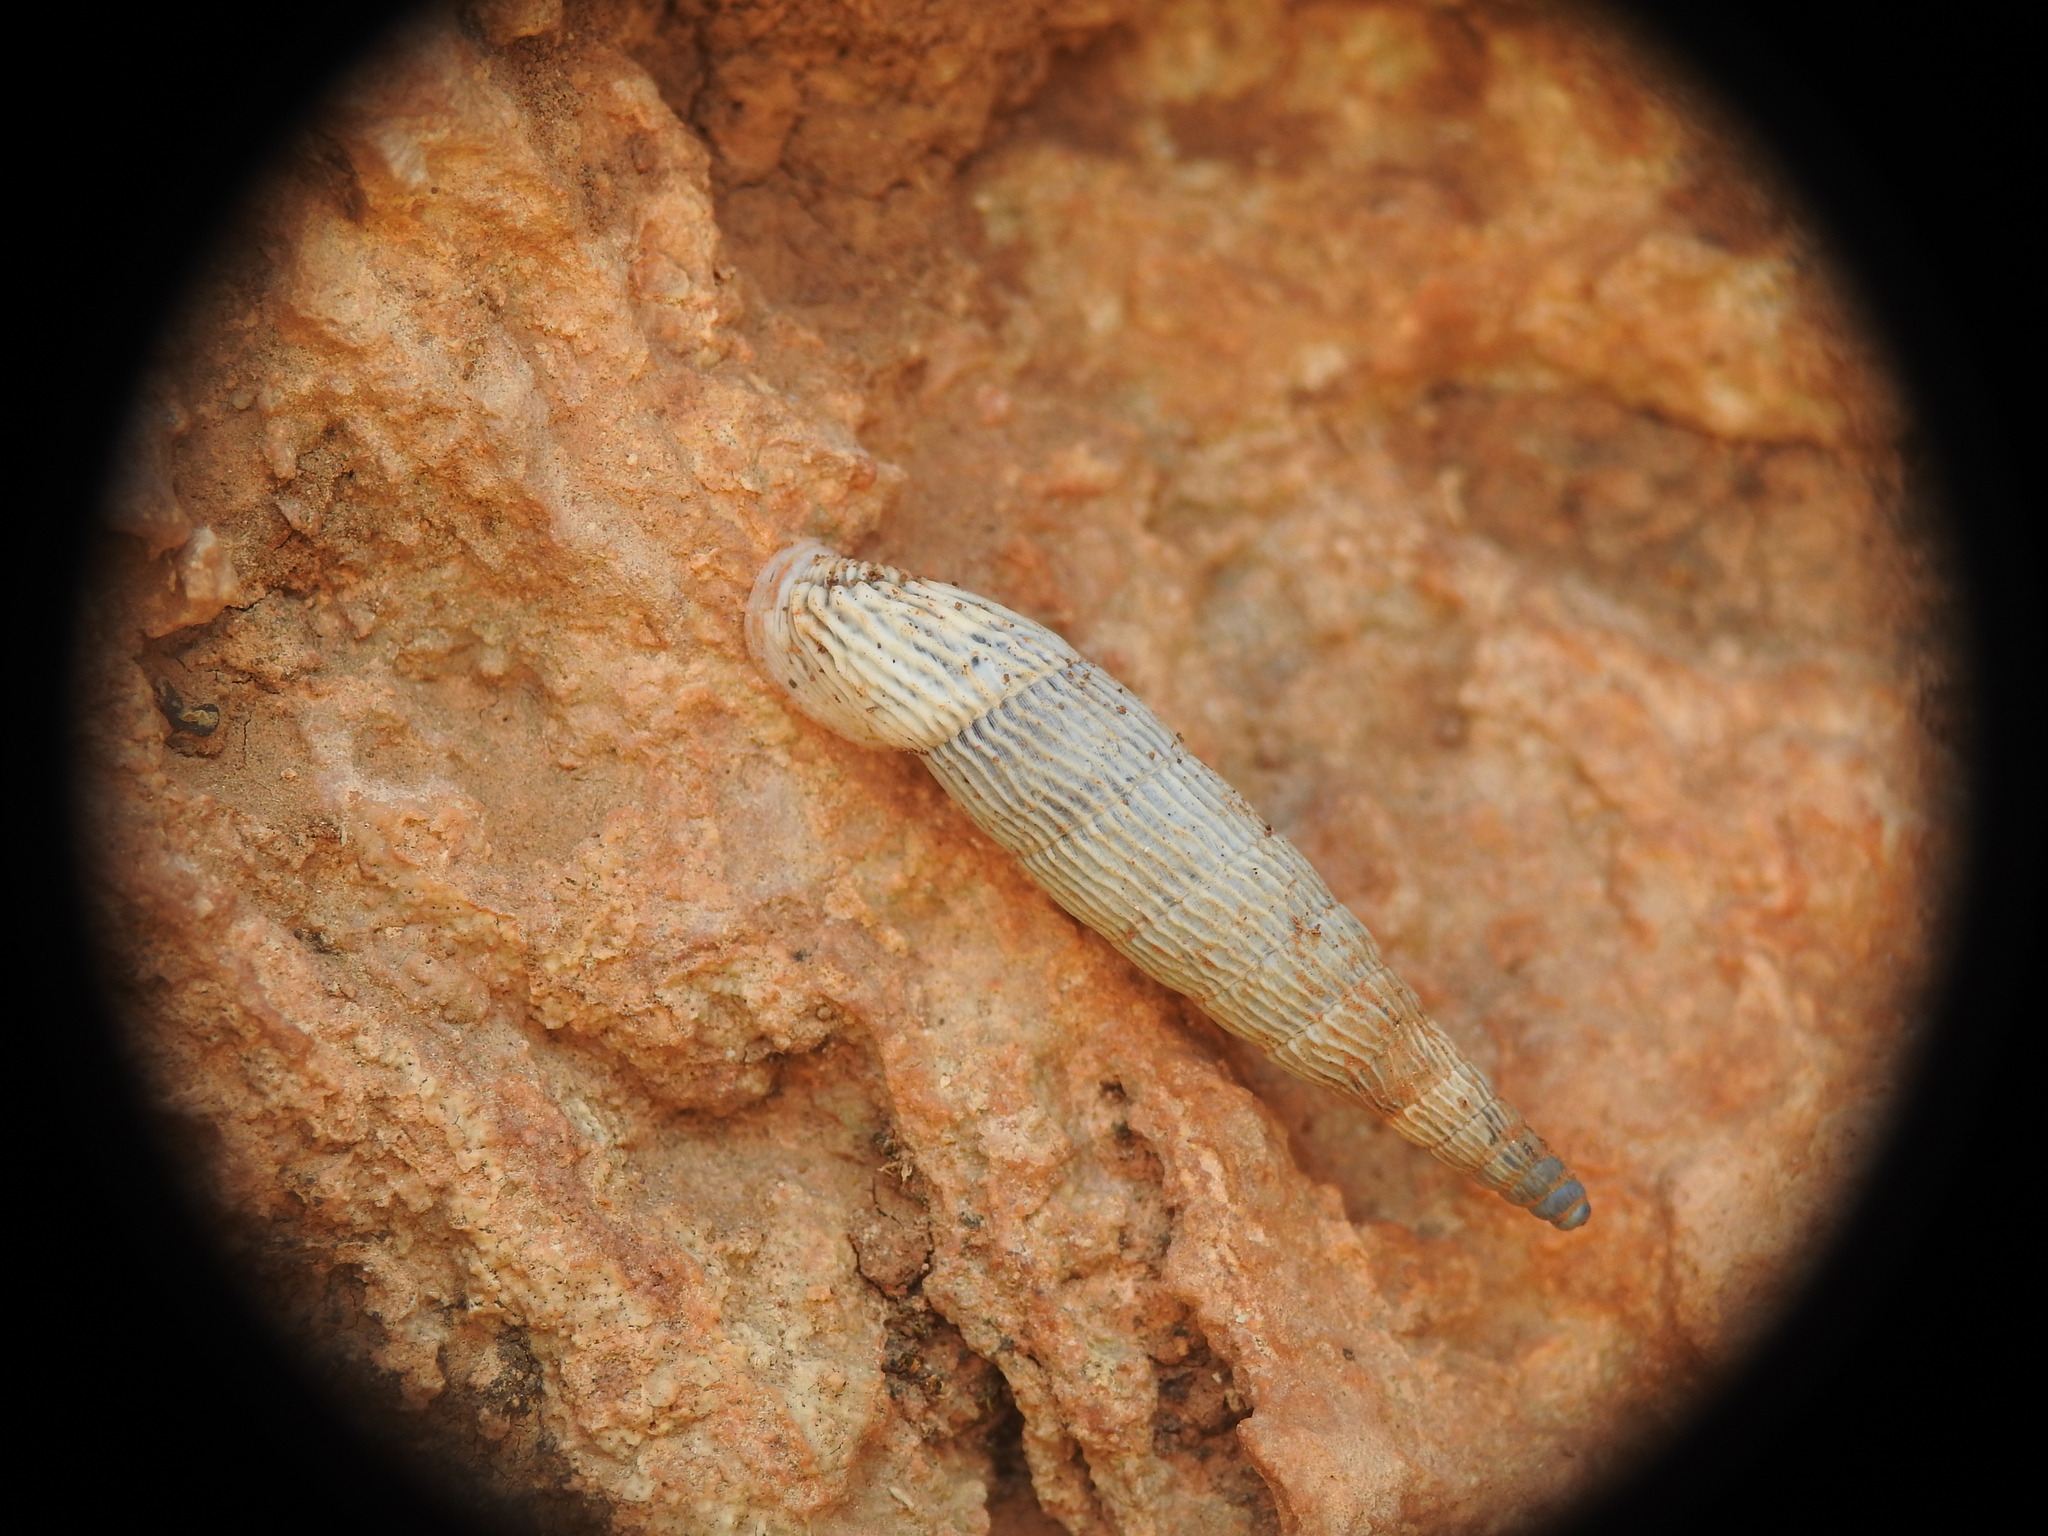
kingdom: Animalia
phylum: Mollusca
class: Gastropoda
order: Stylommatophora
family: Clausiliidae
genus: Albinaria
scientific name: Albinaria teres
